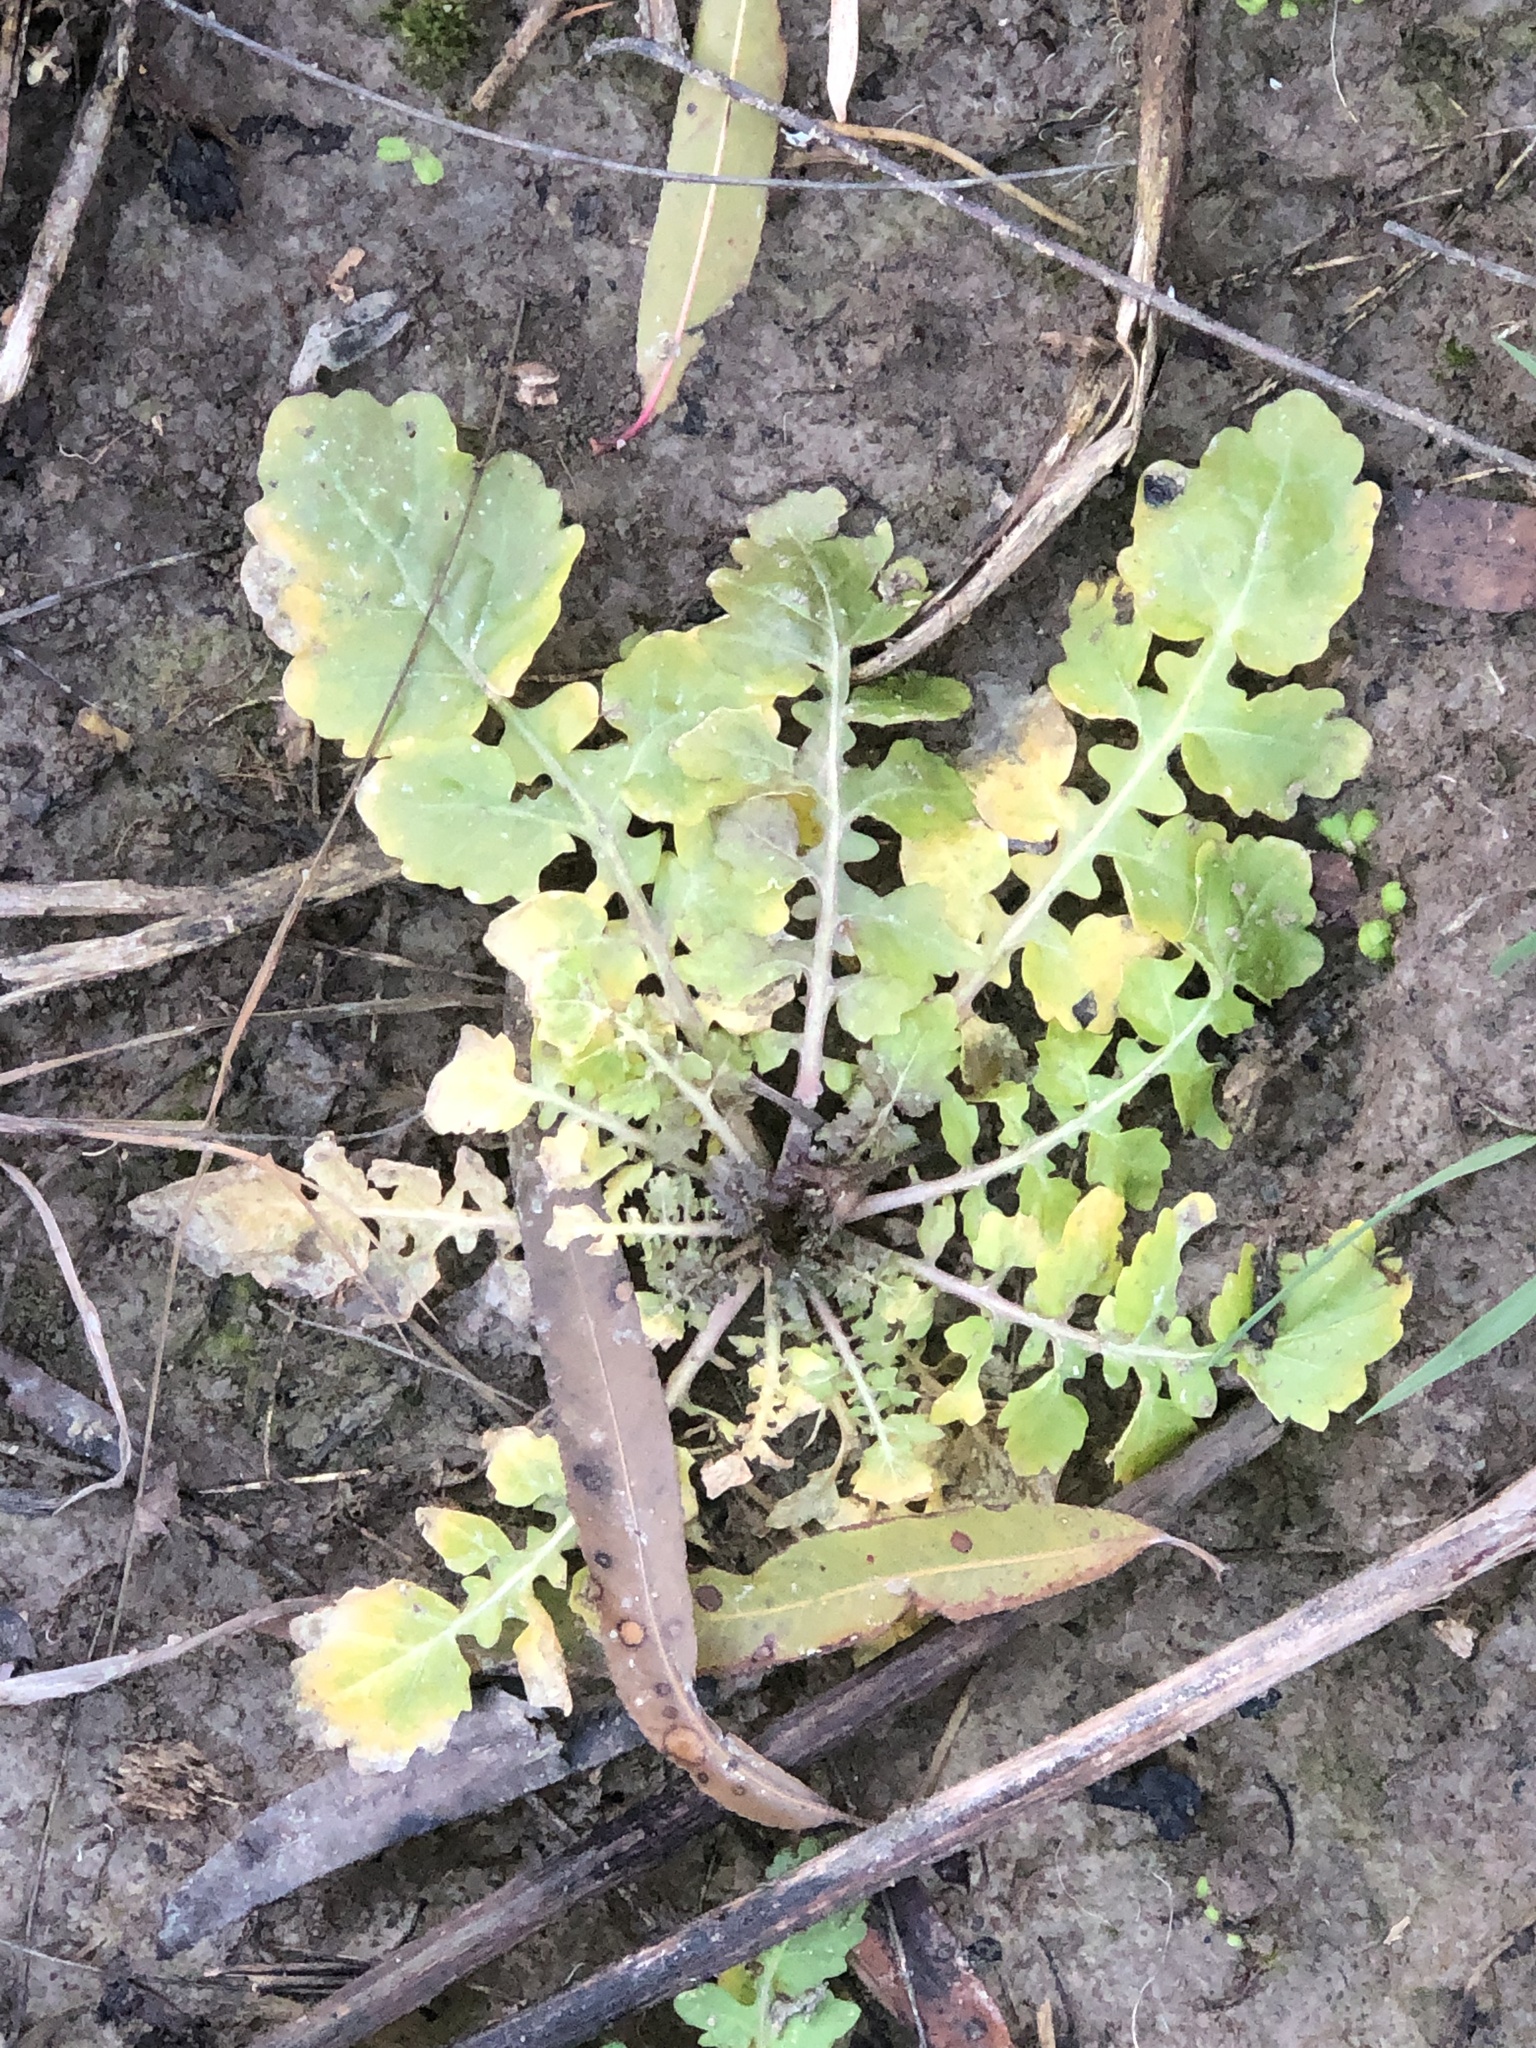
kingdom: Plantae
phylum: Tracheophyta
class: Magnoliopsida
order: Brassicales
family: Brassicaceae
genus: Rorippa
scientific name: Rorippa teres
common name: Southern marsh yellowcress
